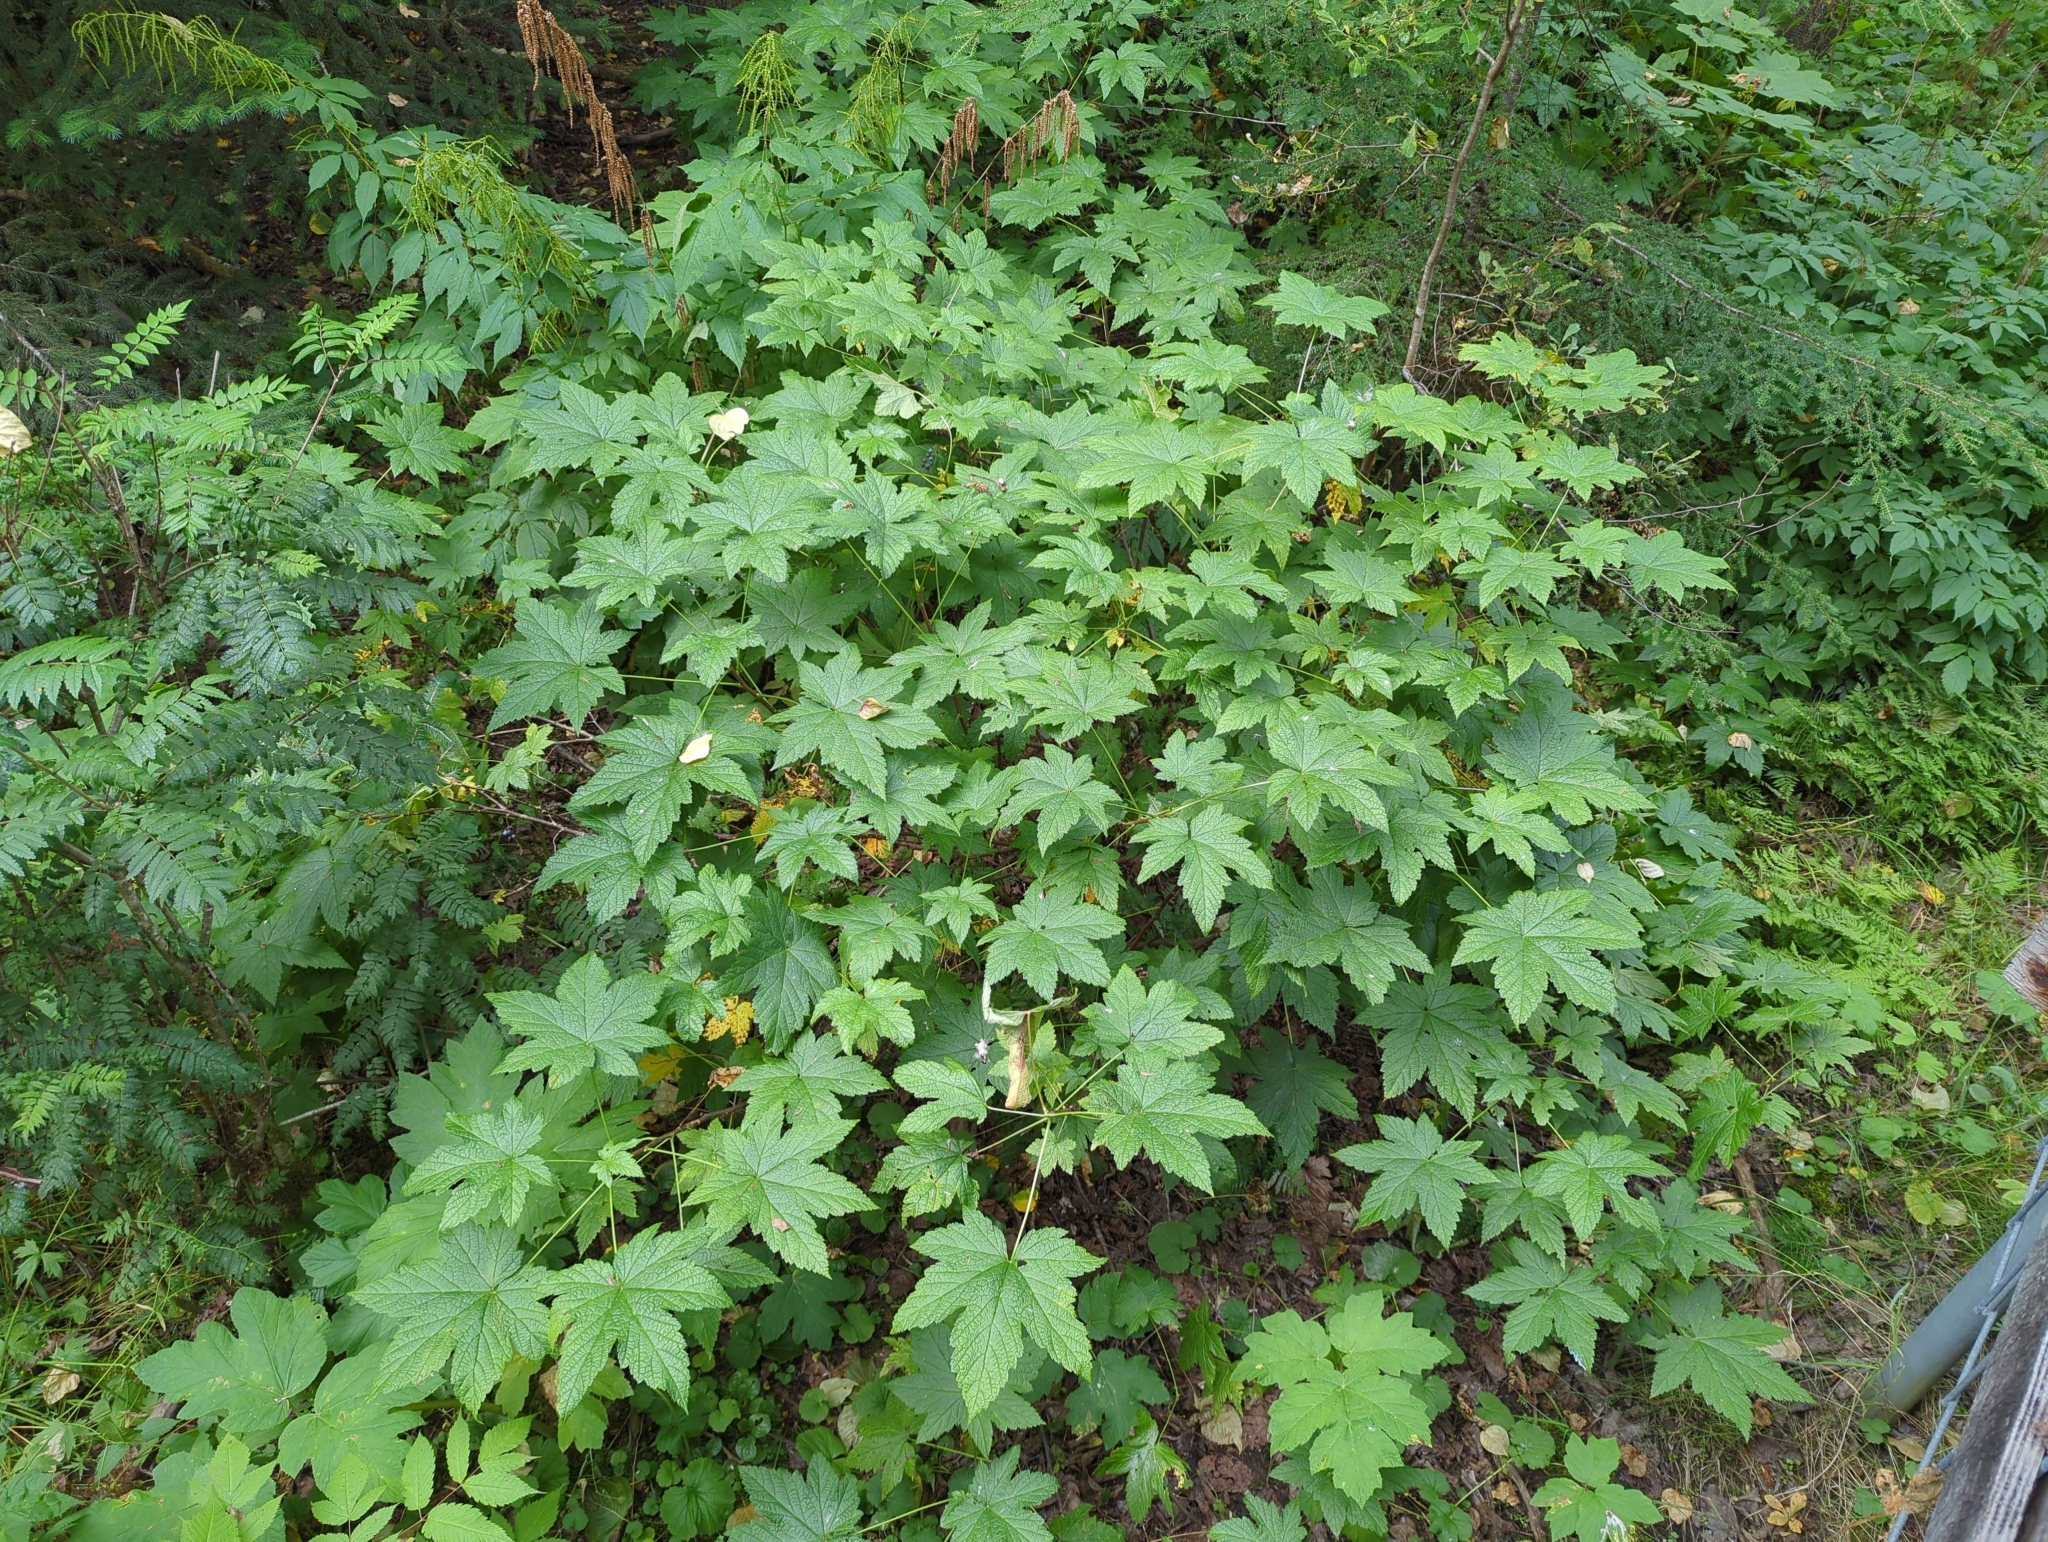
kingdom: Plantae
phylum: Tracheophyta
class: Magnoliopsida
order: Saxifragales
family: Grossulariaceae
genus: Ribes
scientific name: Ribes bracteosum
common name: California black currant
